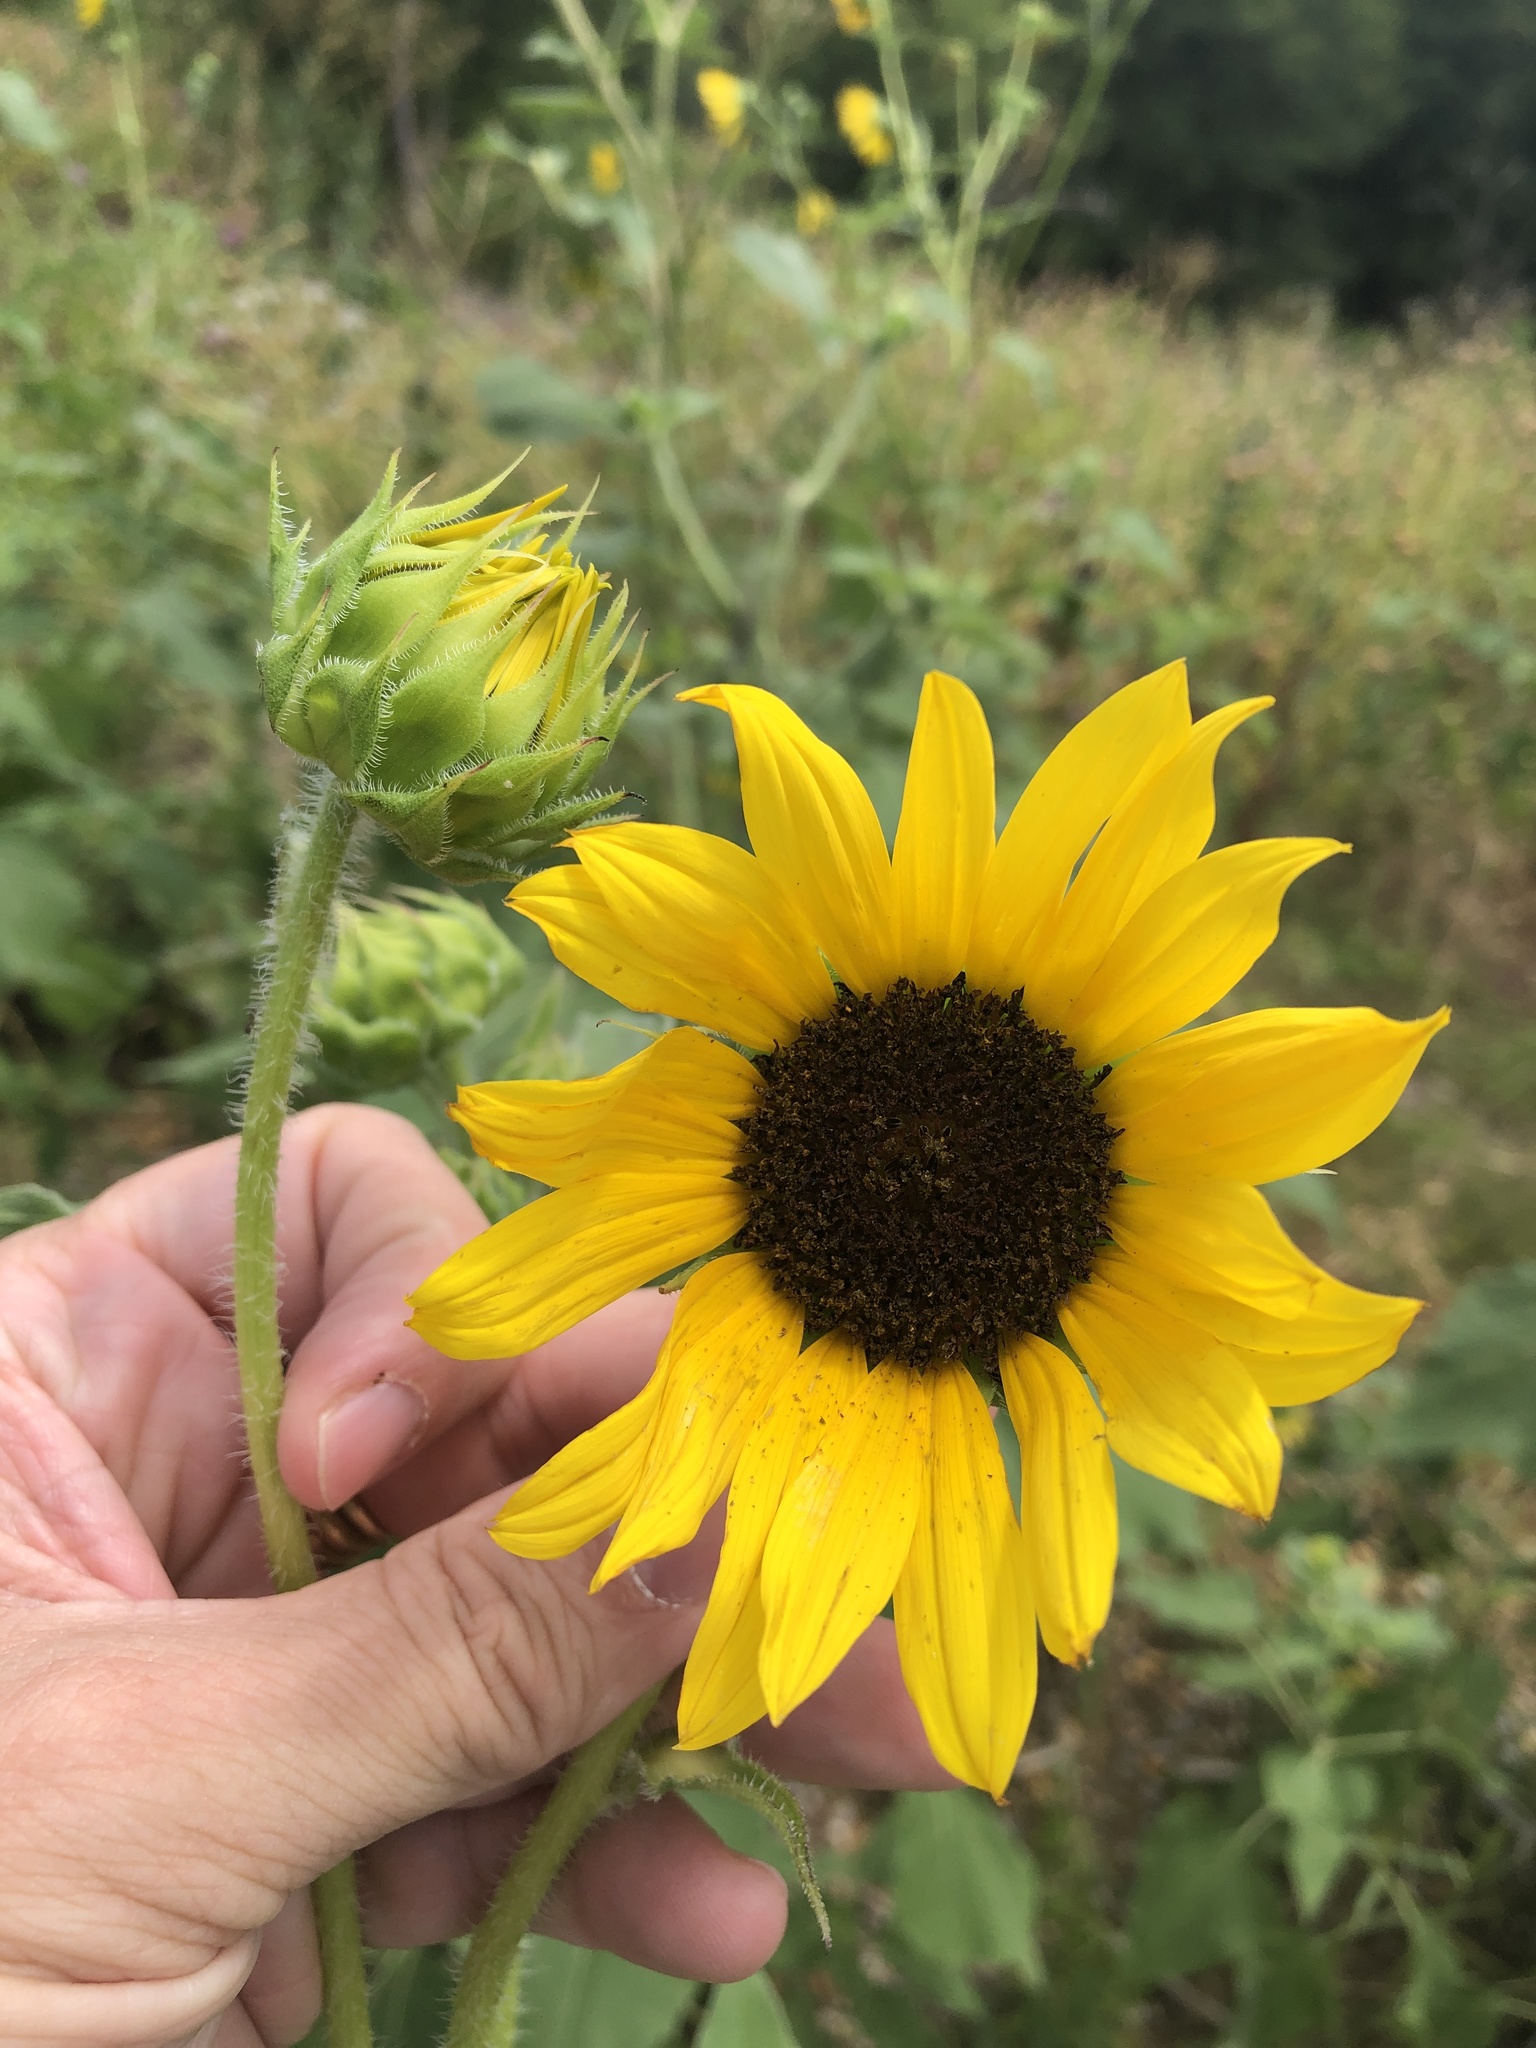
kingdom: Plantae
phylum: Tracheophyta
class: Magnoliopsida
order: Asterales
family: Asteraceae
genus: Helianthus
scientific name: Helianthus annuus
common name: Sunflower
